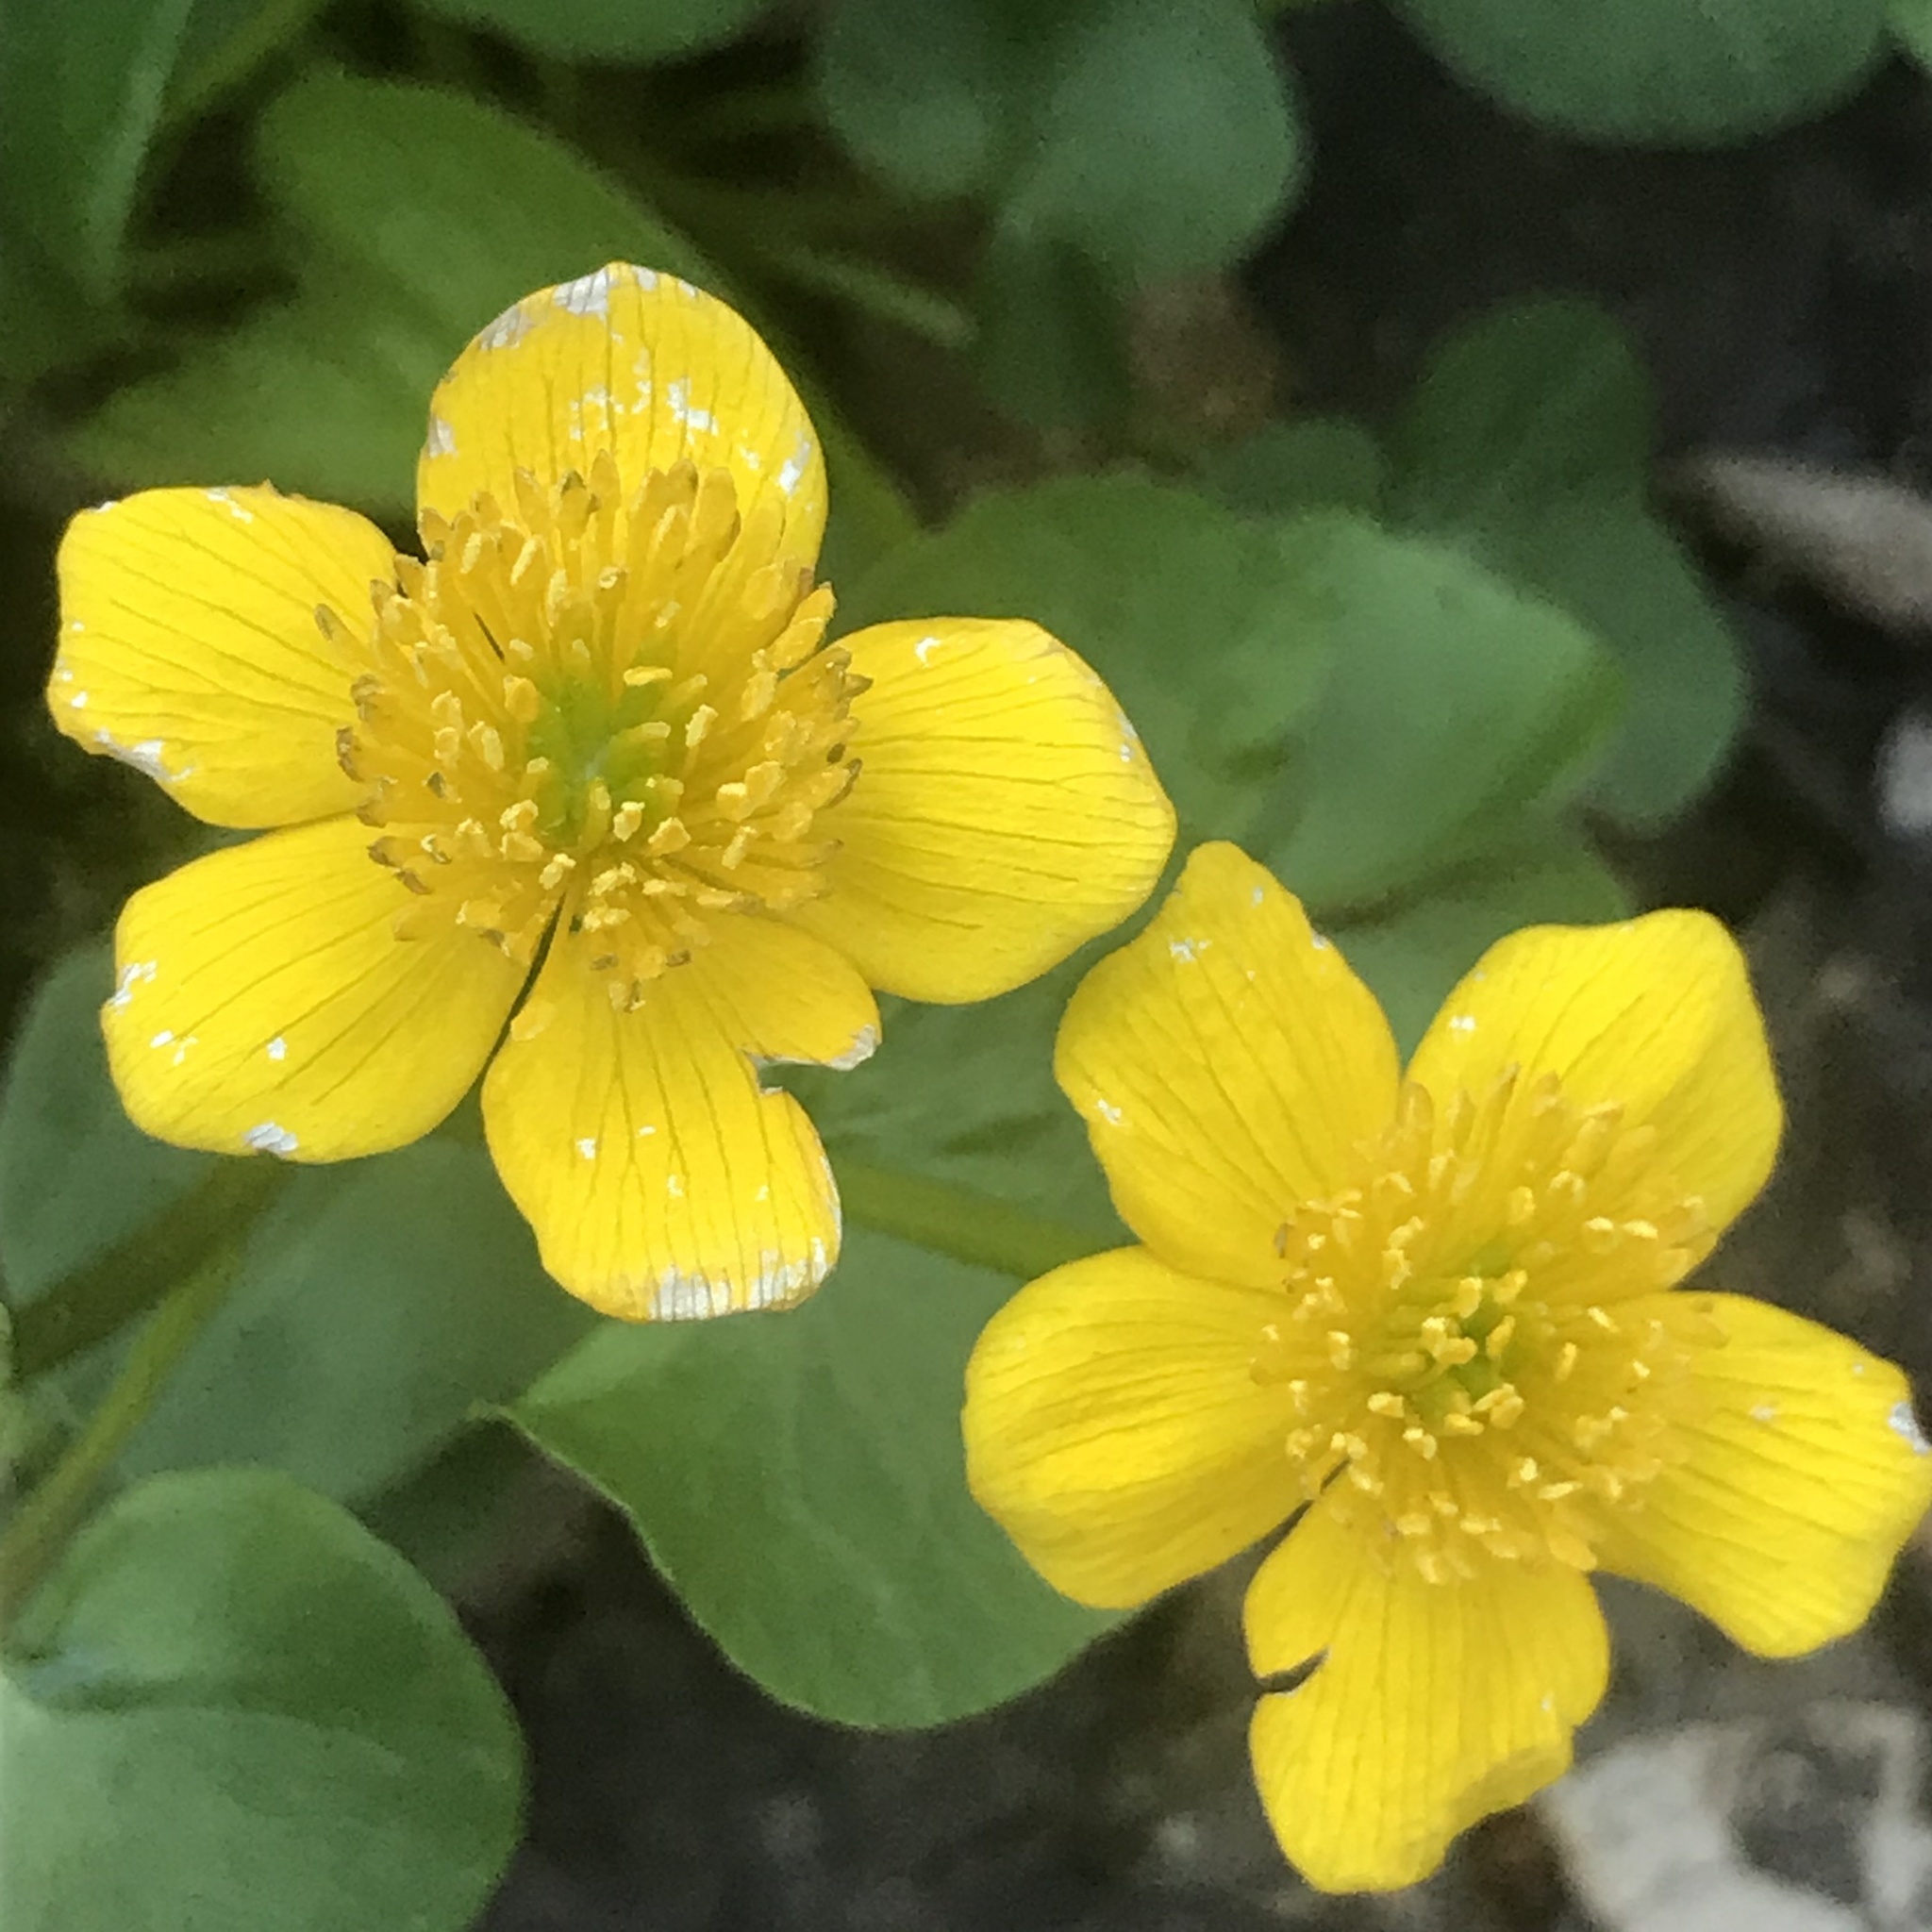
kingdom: Plantae
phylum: Tracheophyta
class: Magnoliopsida
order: Ranunculales
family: Ranunculaceae
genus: Caltha
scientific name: Caltha palustris
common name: Marsh marigold
